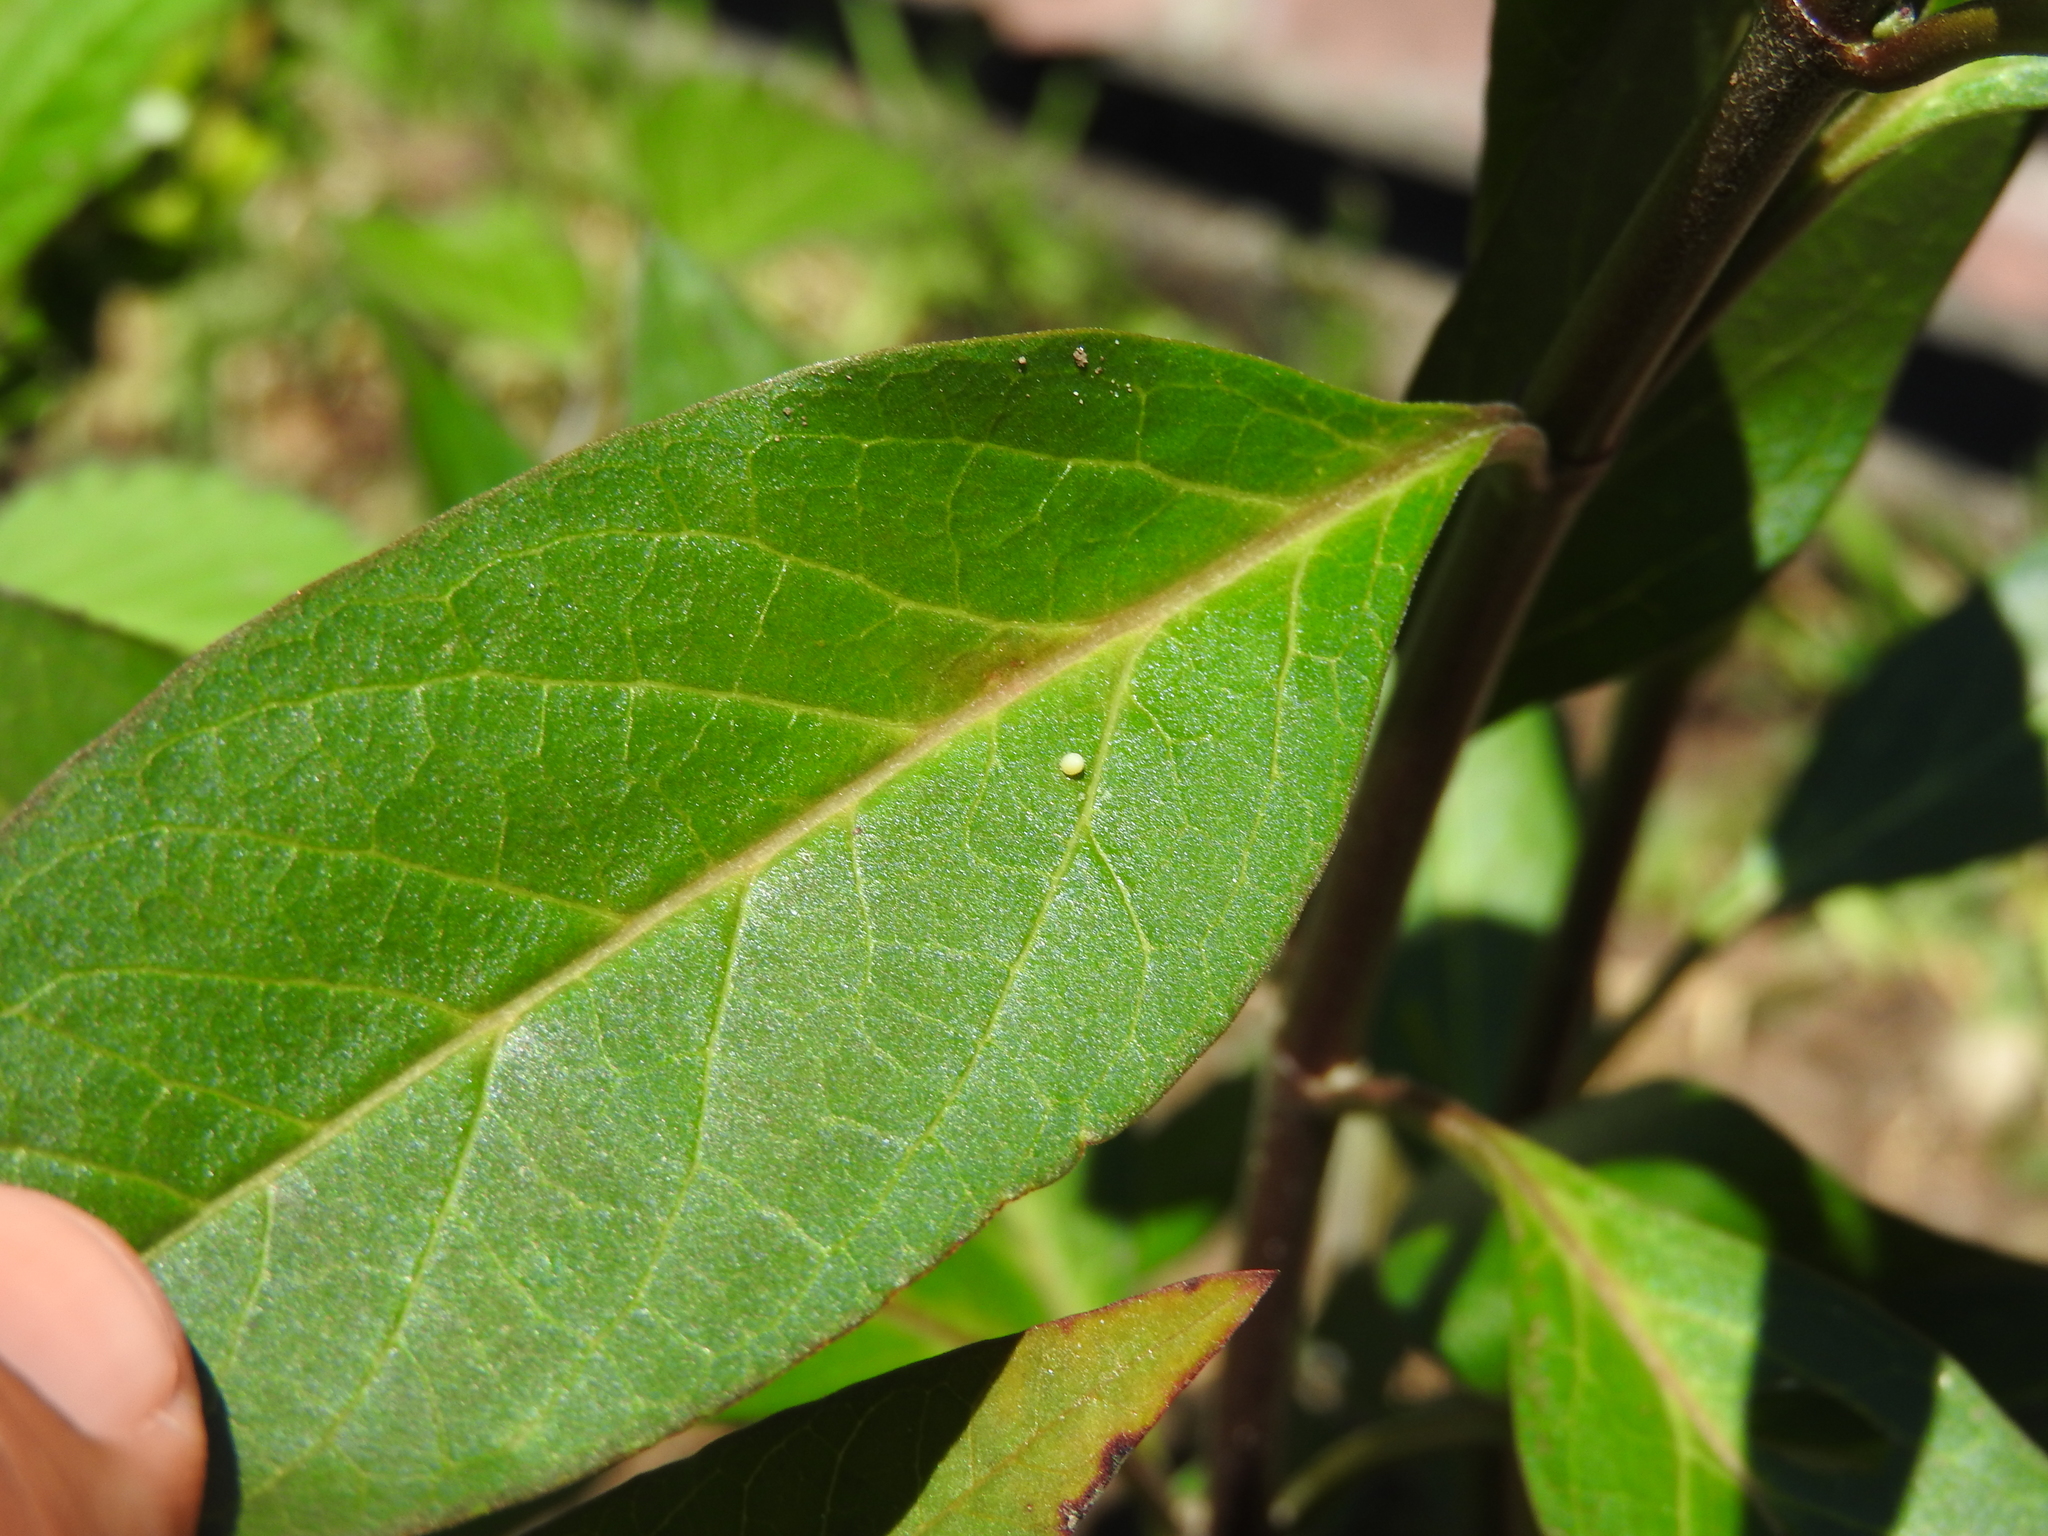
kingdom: Animalia
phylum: Arthropoda
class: Insecta
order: Lepidoptera
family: Nymphalidae
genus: Danaus
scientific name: Danaus plexippus
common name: Monarch
